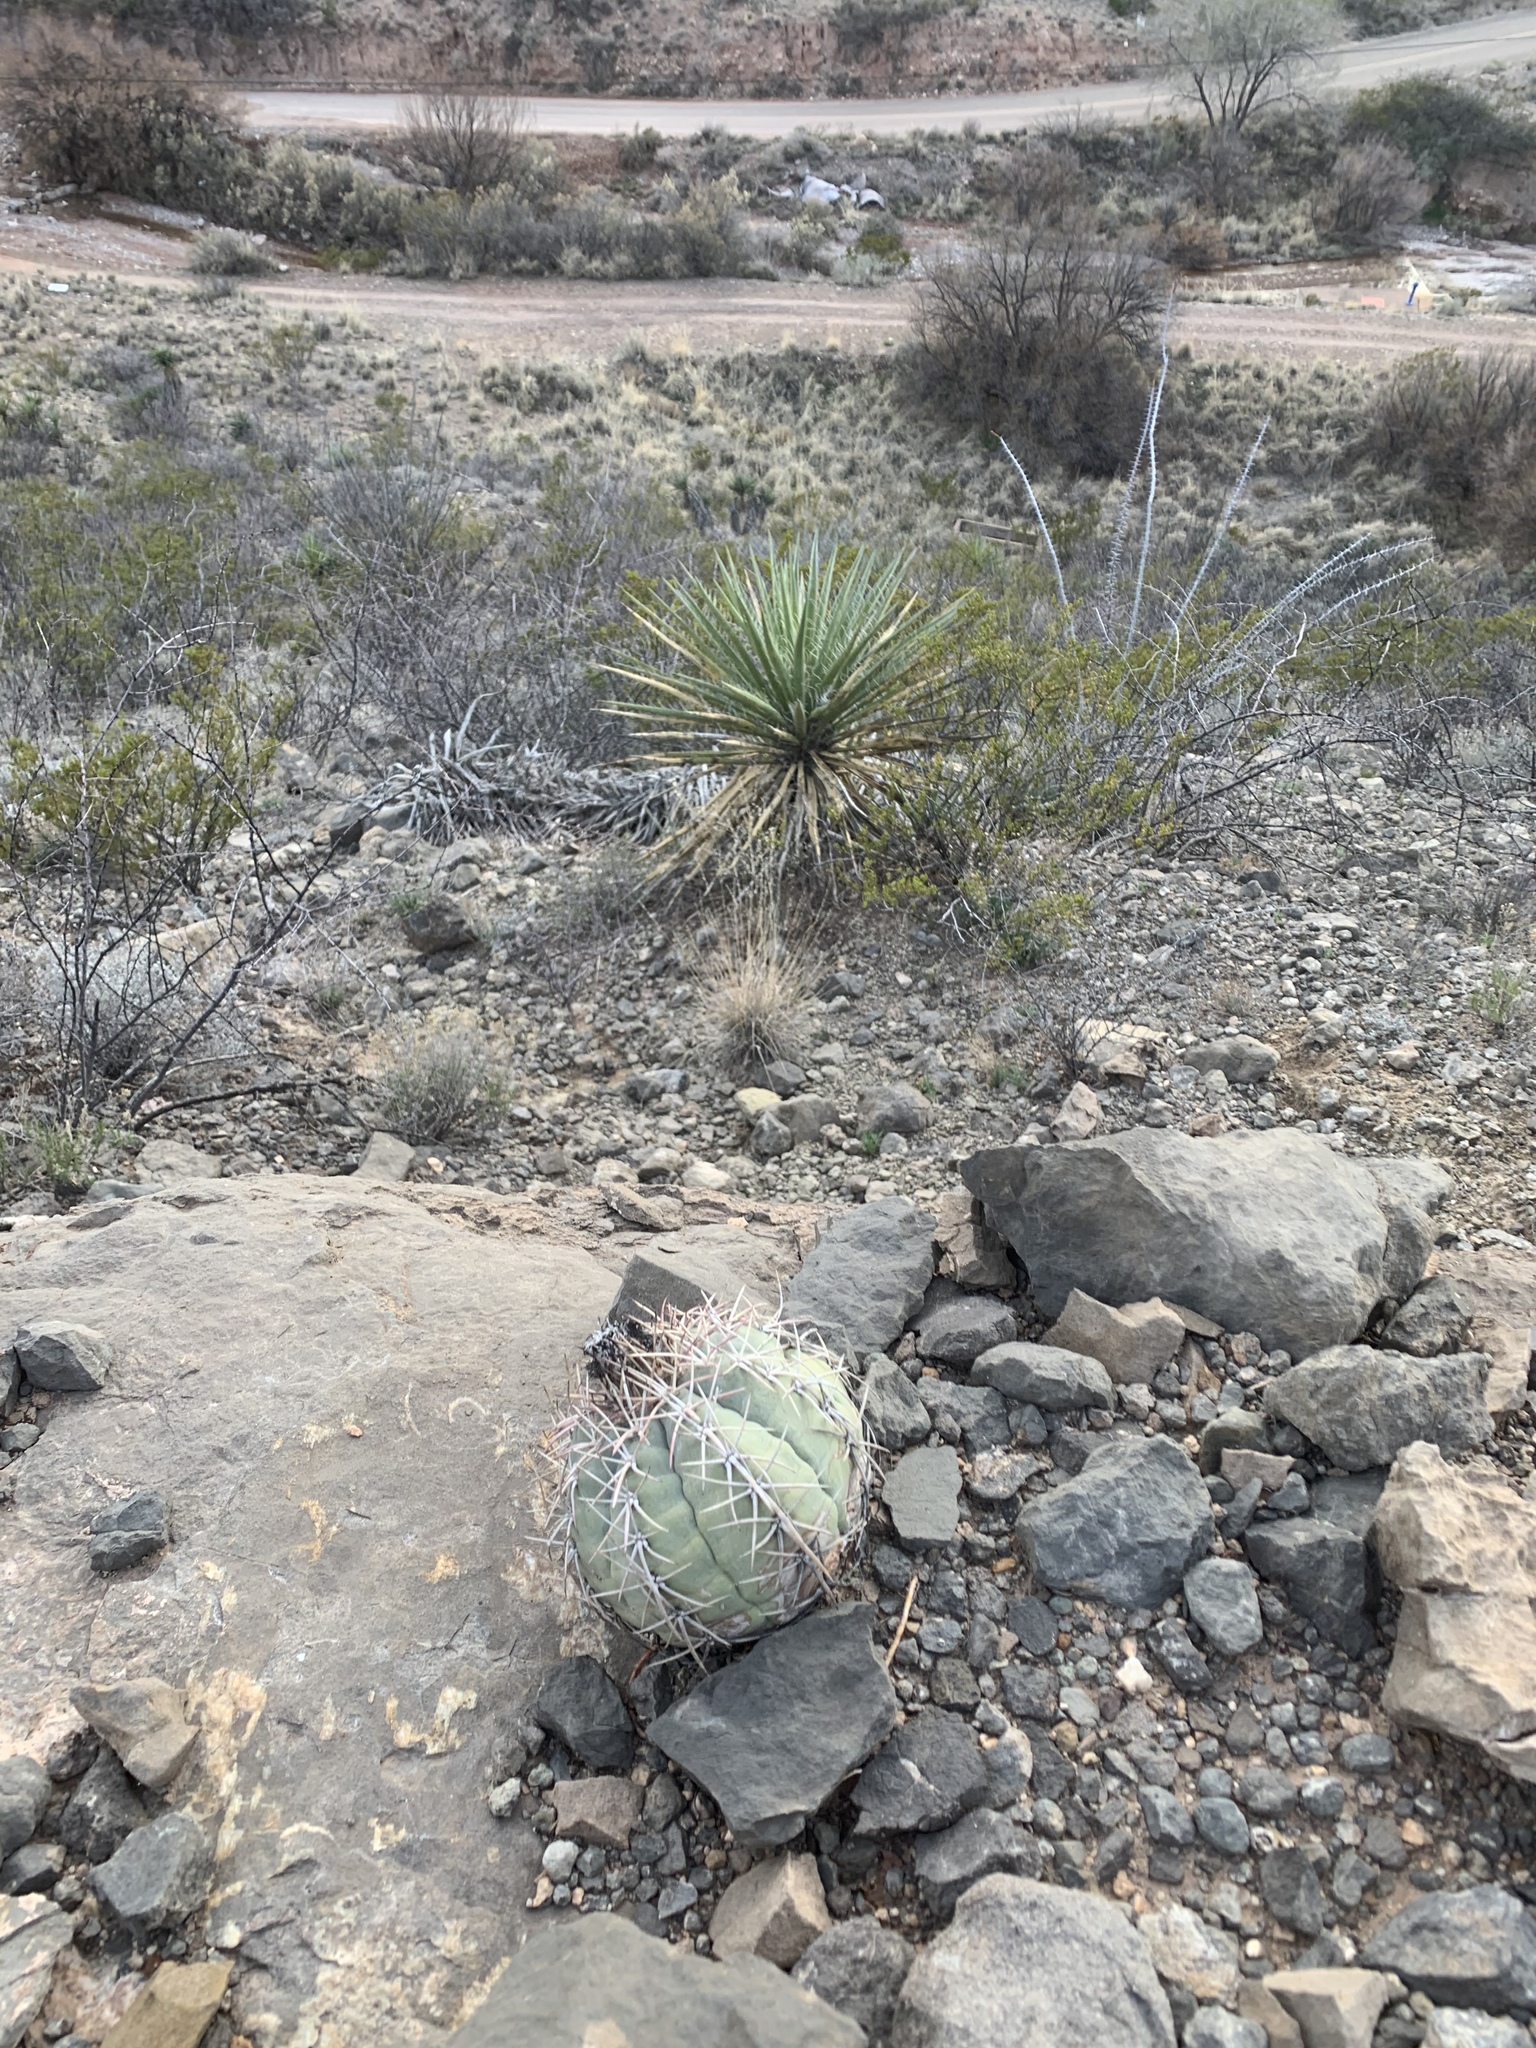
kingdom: Plantae
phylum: Tracheophyta
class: Magnoliopsida
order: Caryophyllales
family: Cactaceae
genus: Echinocactus
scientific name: Echinocactus horizonthalonius
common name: Devilshead
